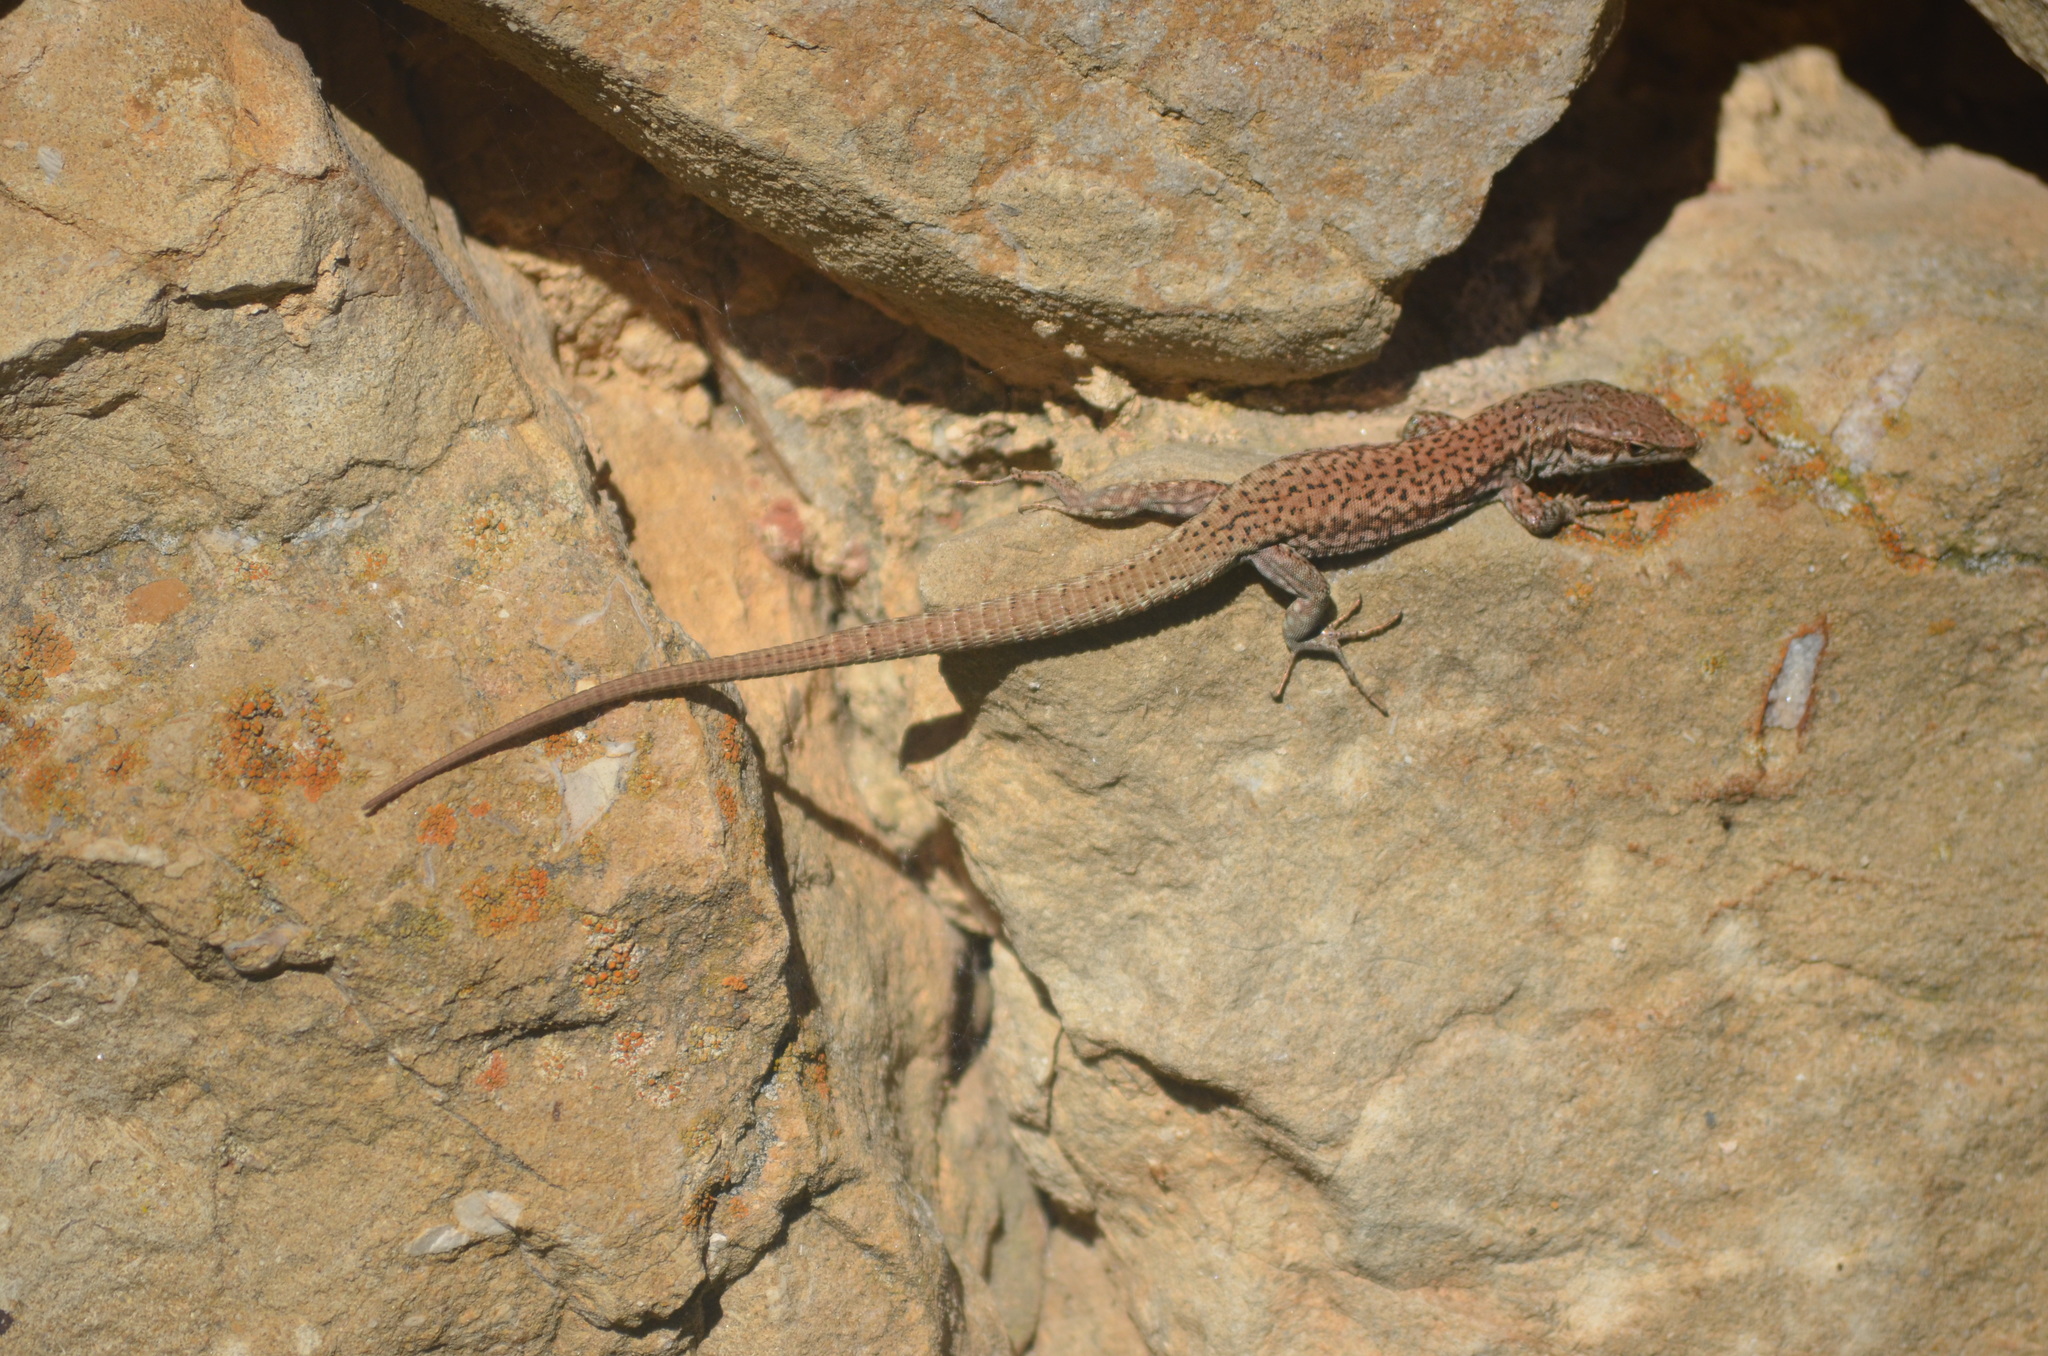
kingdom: Animalia
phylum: Chordata
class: Squamata
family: Lacertidae
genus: Podarcis
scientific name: Podarcis liolepis
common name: Catalonian wall lizard
